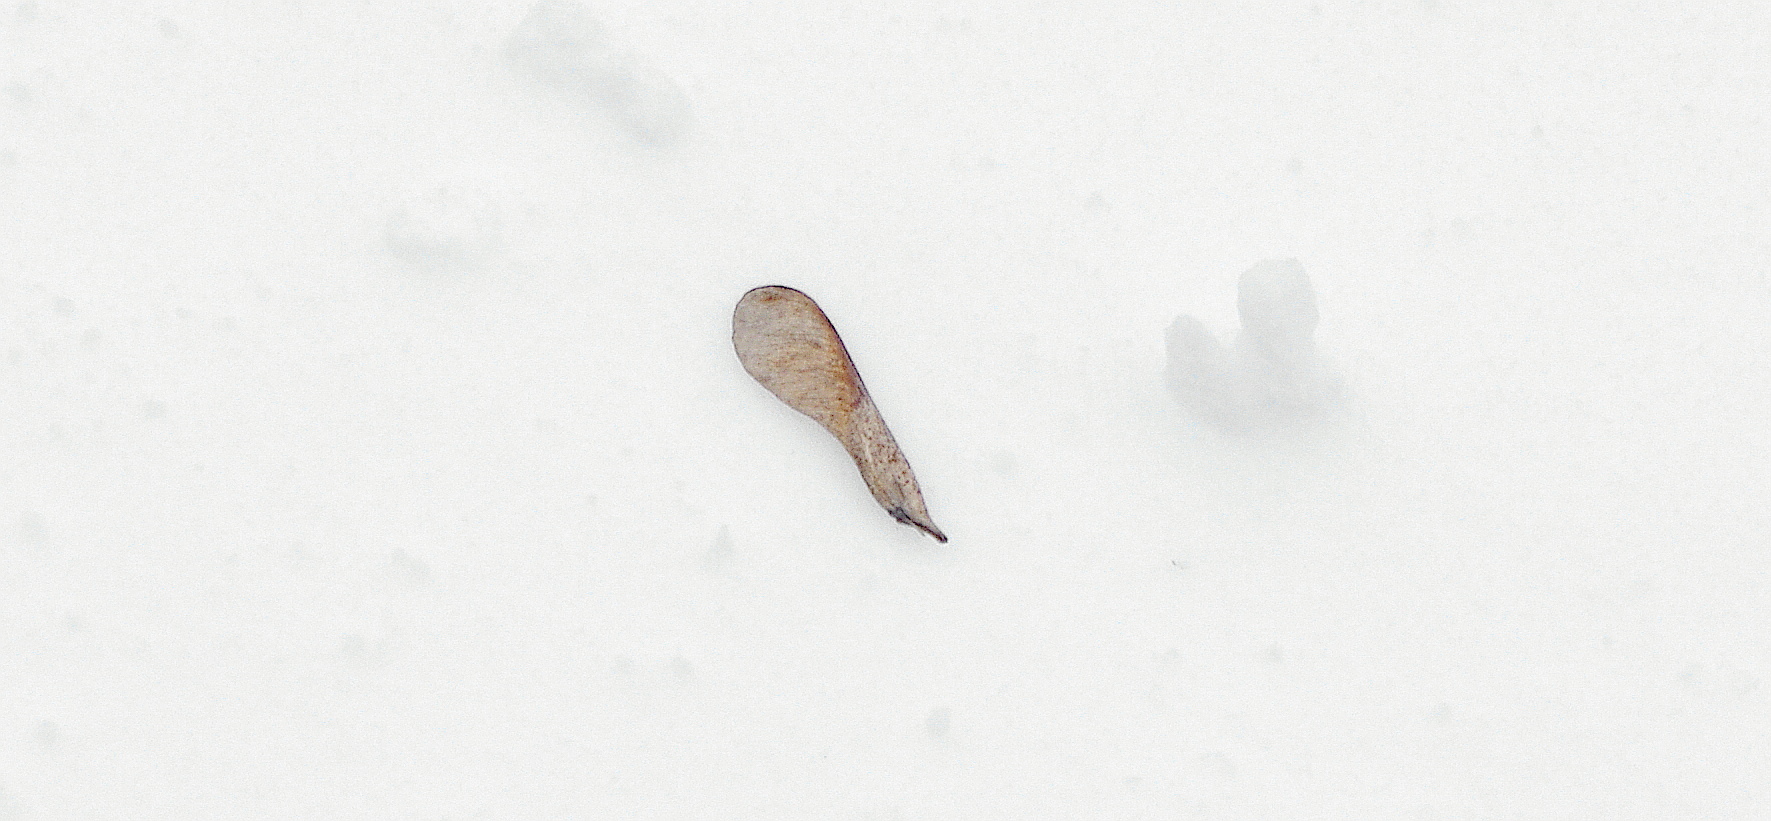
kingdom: Plantae
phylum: Tracheophyta
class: Magnoliopsida
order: Sapindales
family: Sapindaceae
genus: Acer
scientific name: Acer negundo
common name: Ashleaf maple
